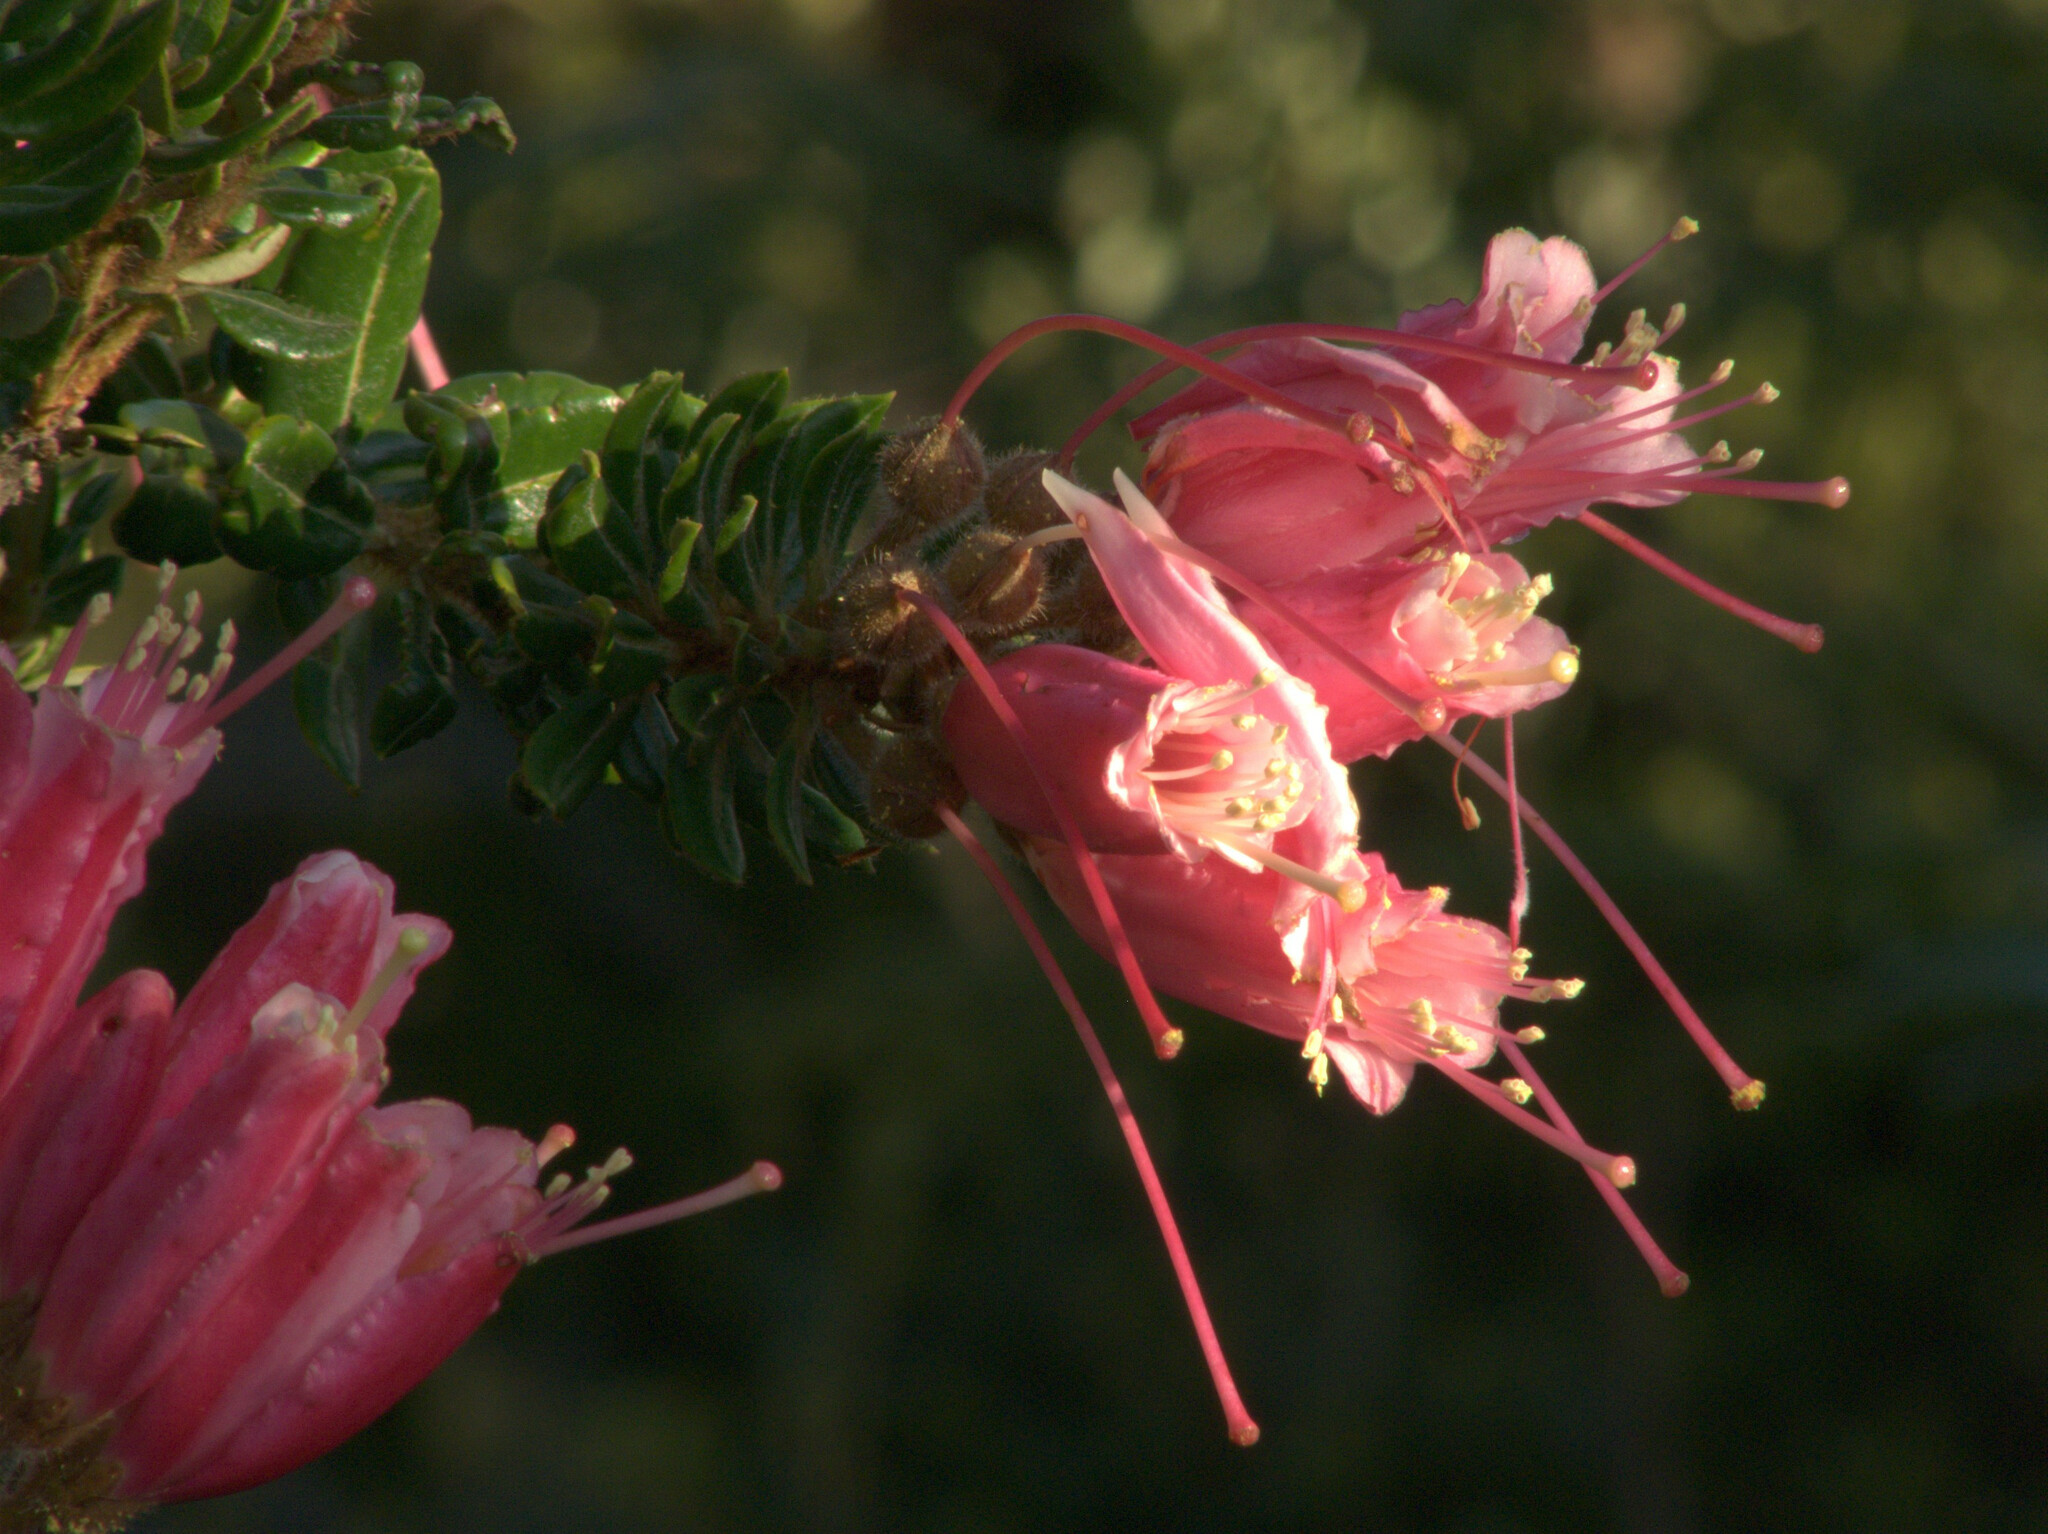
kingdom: Plantae
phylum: Tracheophyta
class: Magnoliopsida
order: Ericales
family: Ericaceae
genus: Bejaria
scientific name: Bejaria resinosa
